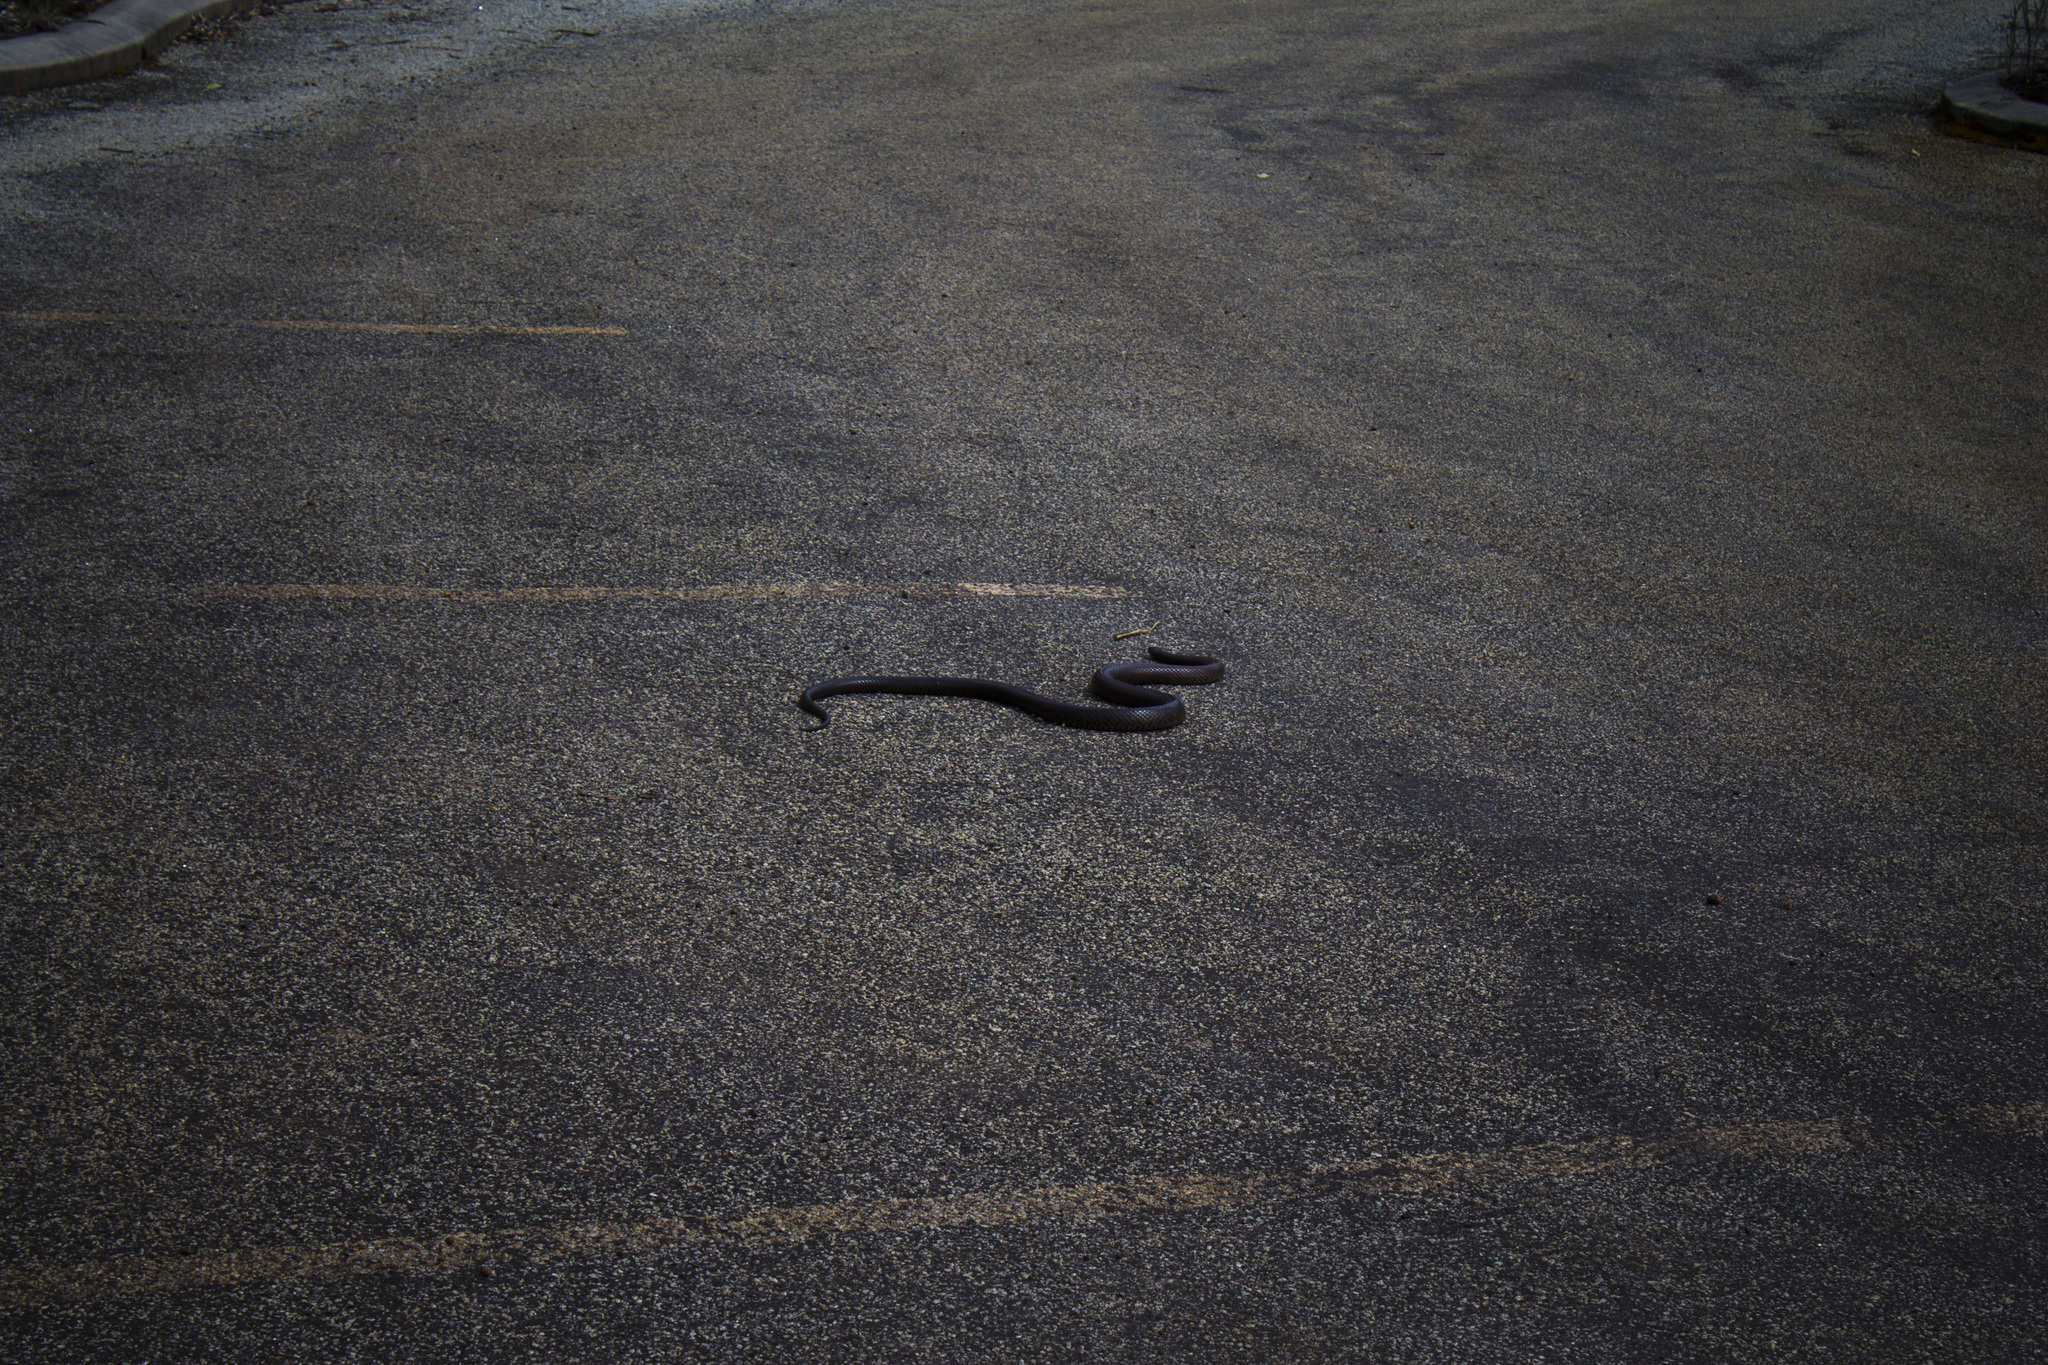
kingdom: Animalia
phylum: Chordata
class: Squamata
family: Elapidae
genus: Pseudonaja
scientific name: Pseudonaja affinis
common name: Dugite
